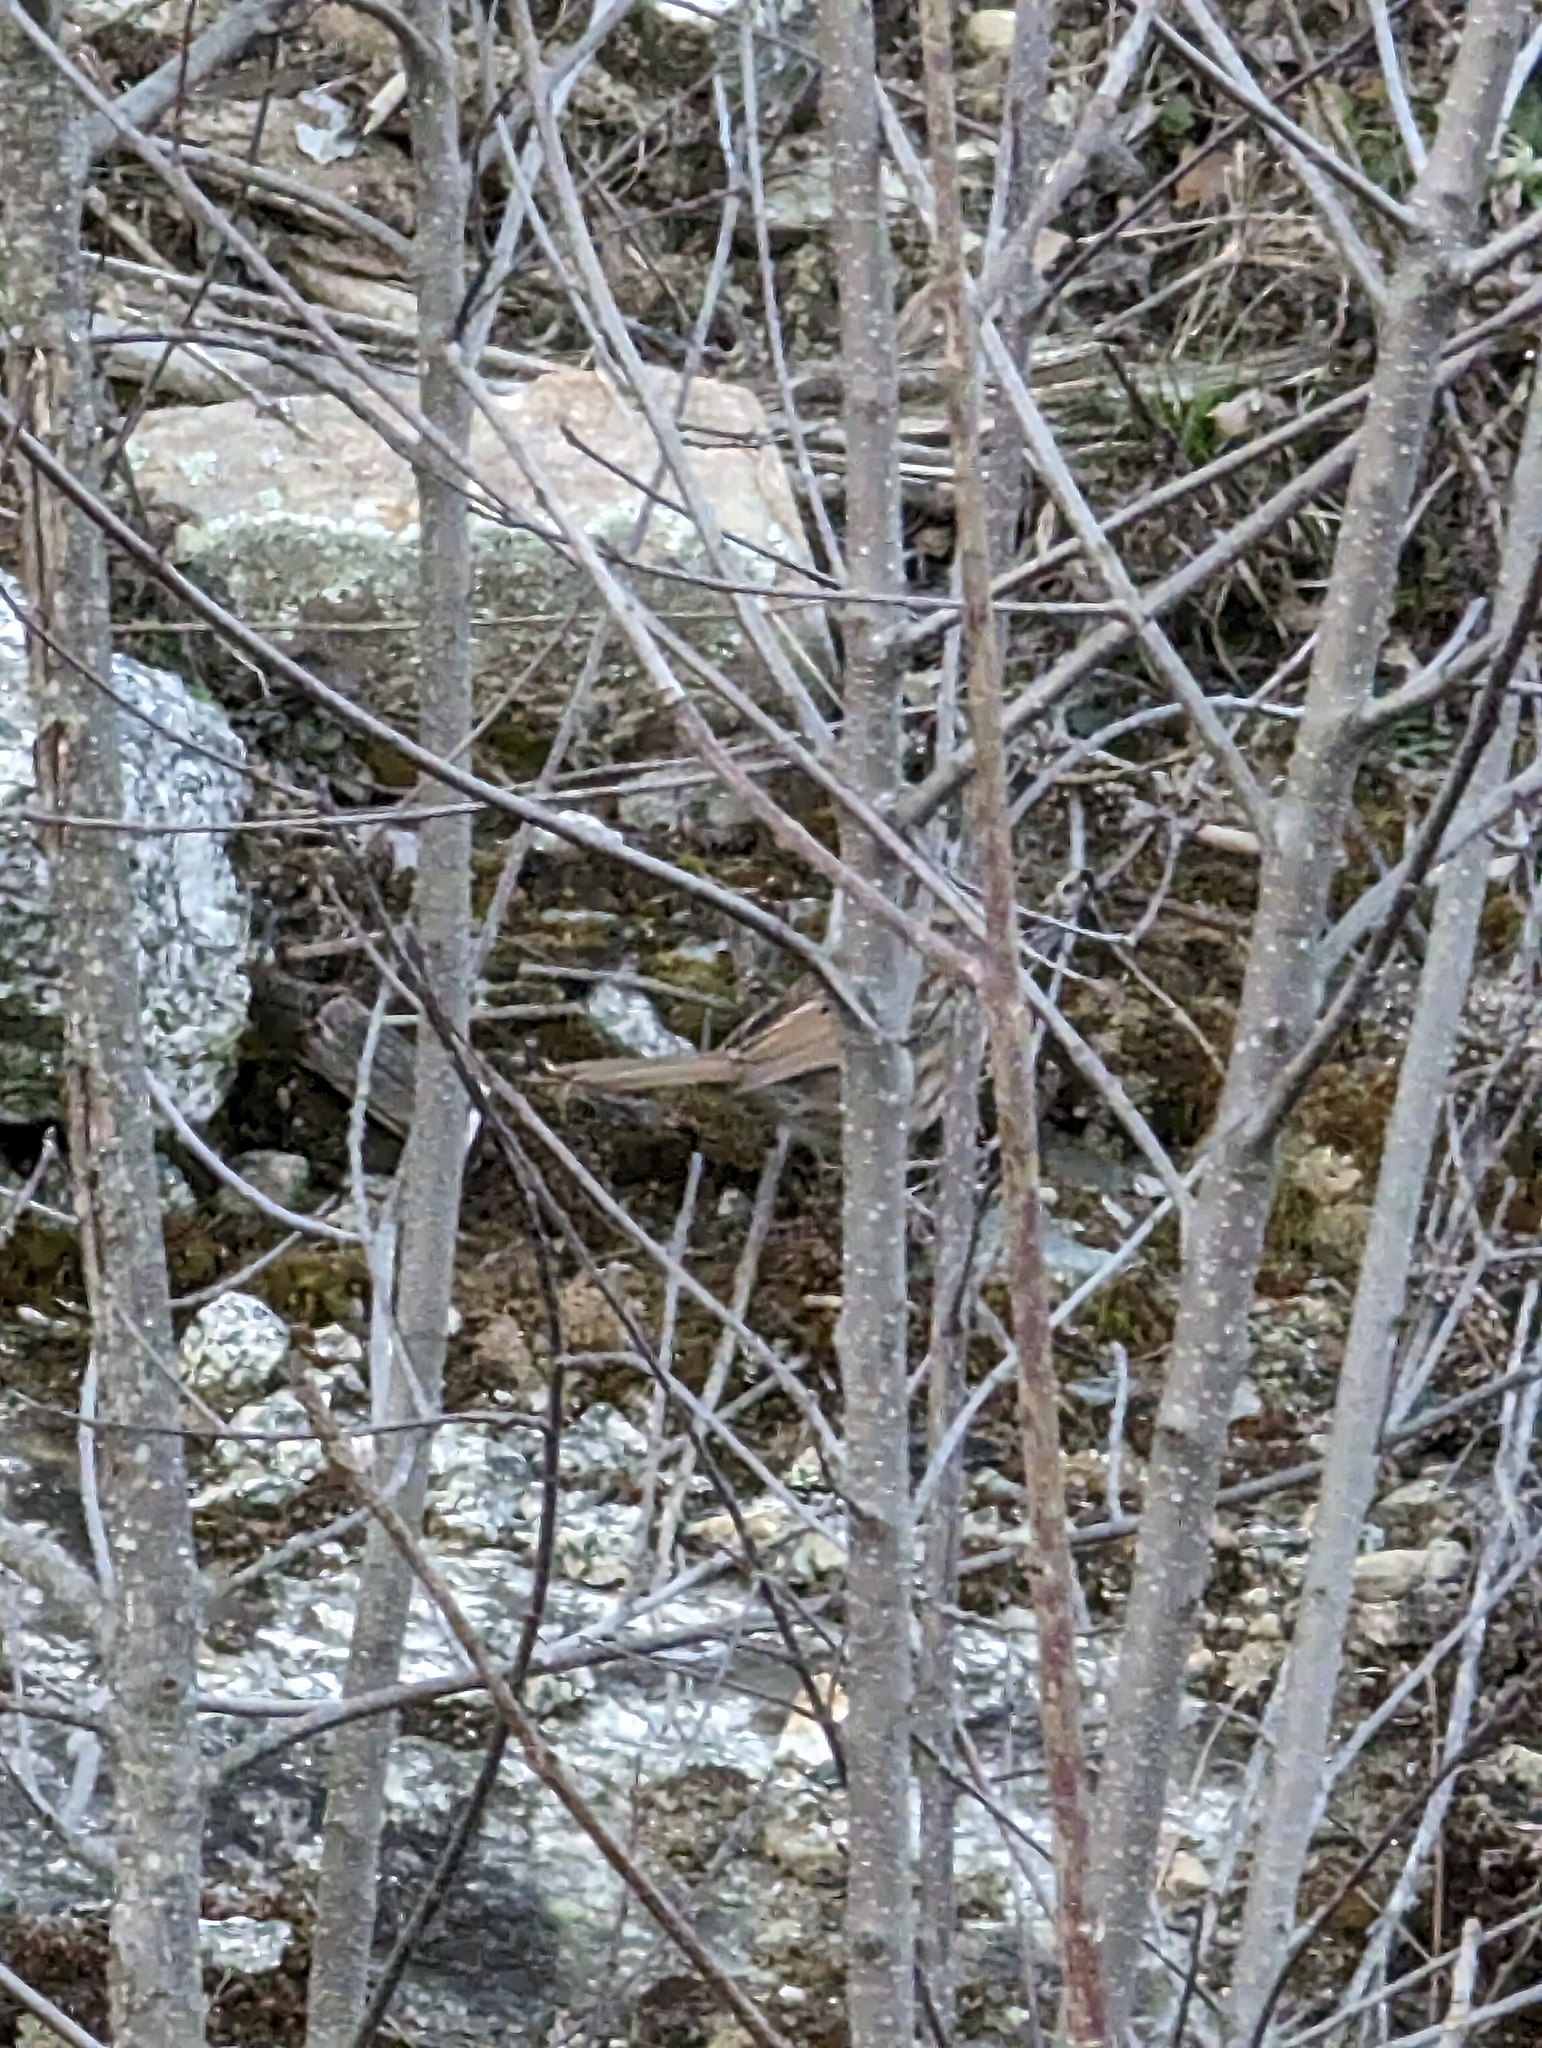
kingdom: Animalia
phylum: Chordata
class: Aves
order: Passeriformes
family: Passerellidae
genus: Melospiza
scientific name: Melospiza melodia
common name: Song sparrow
